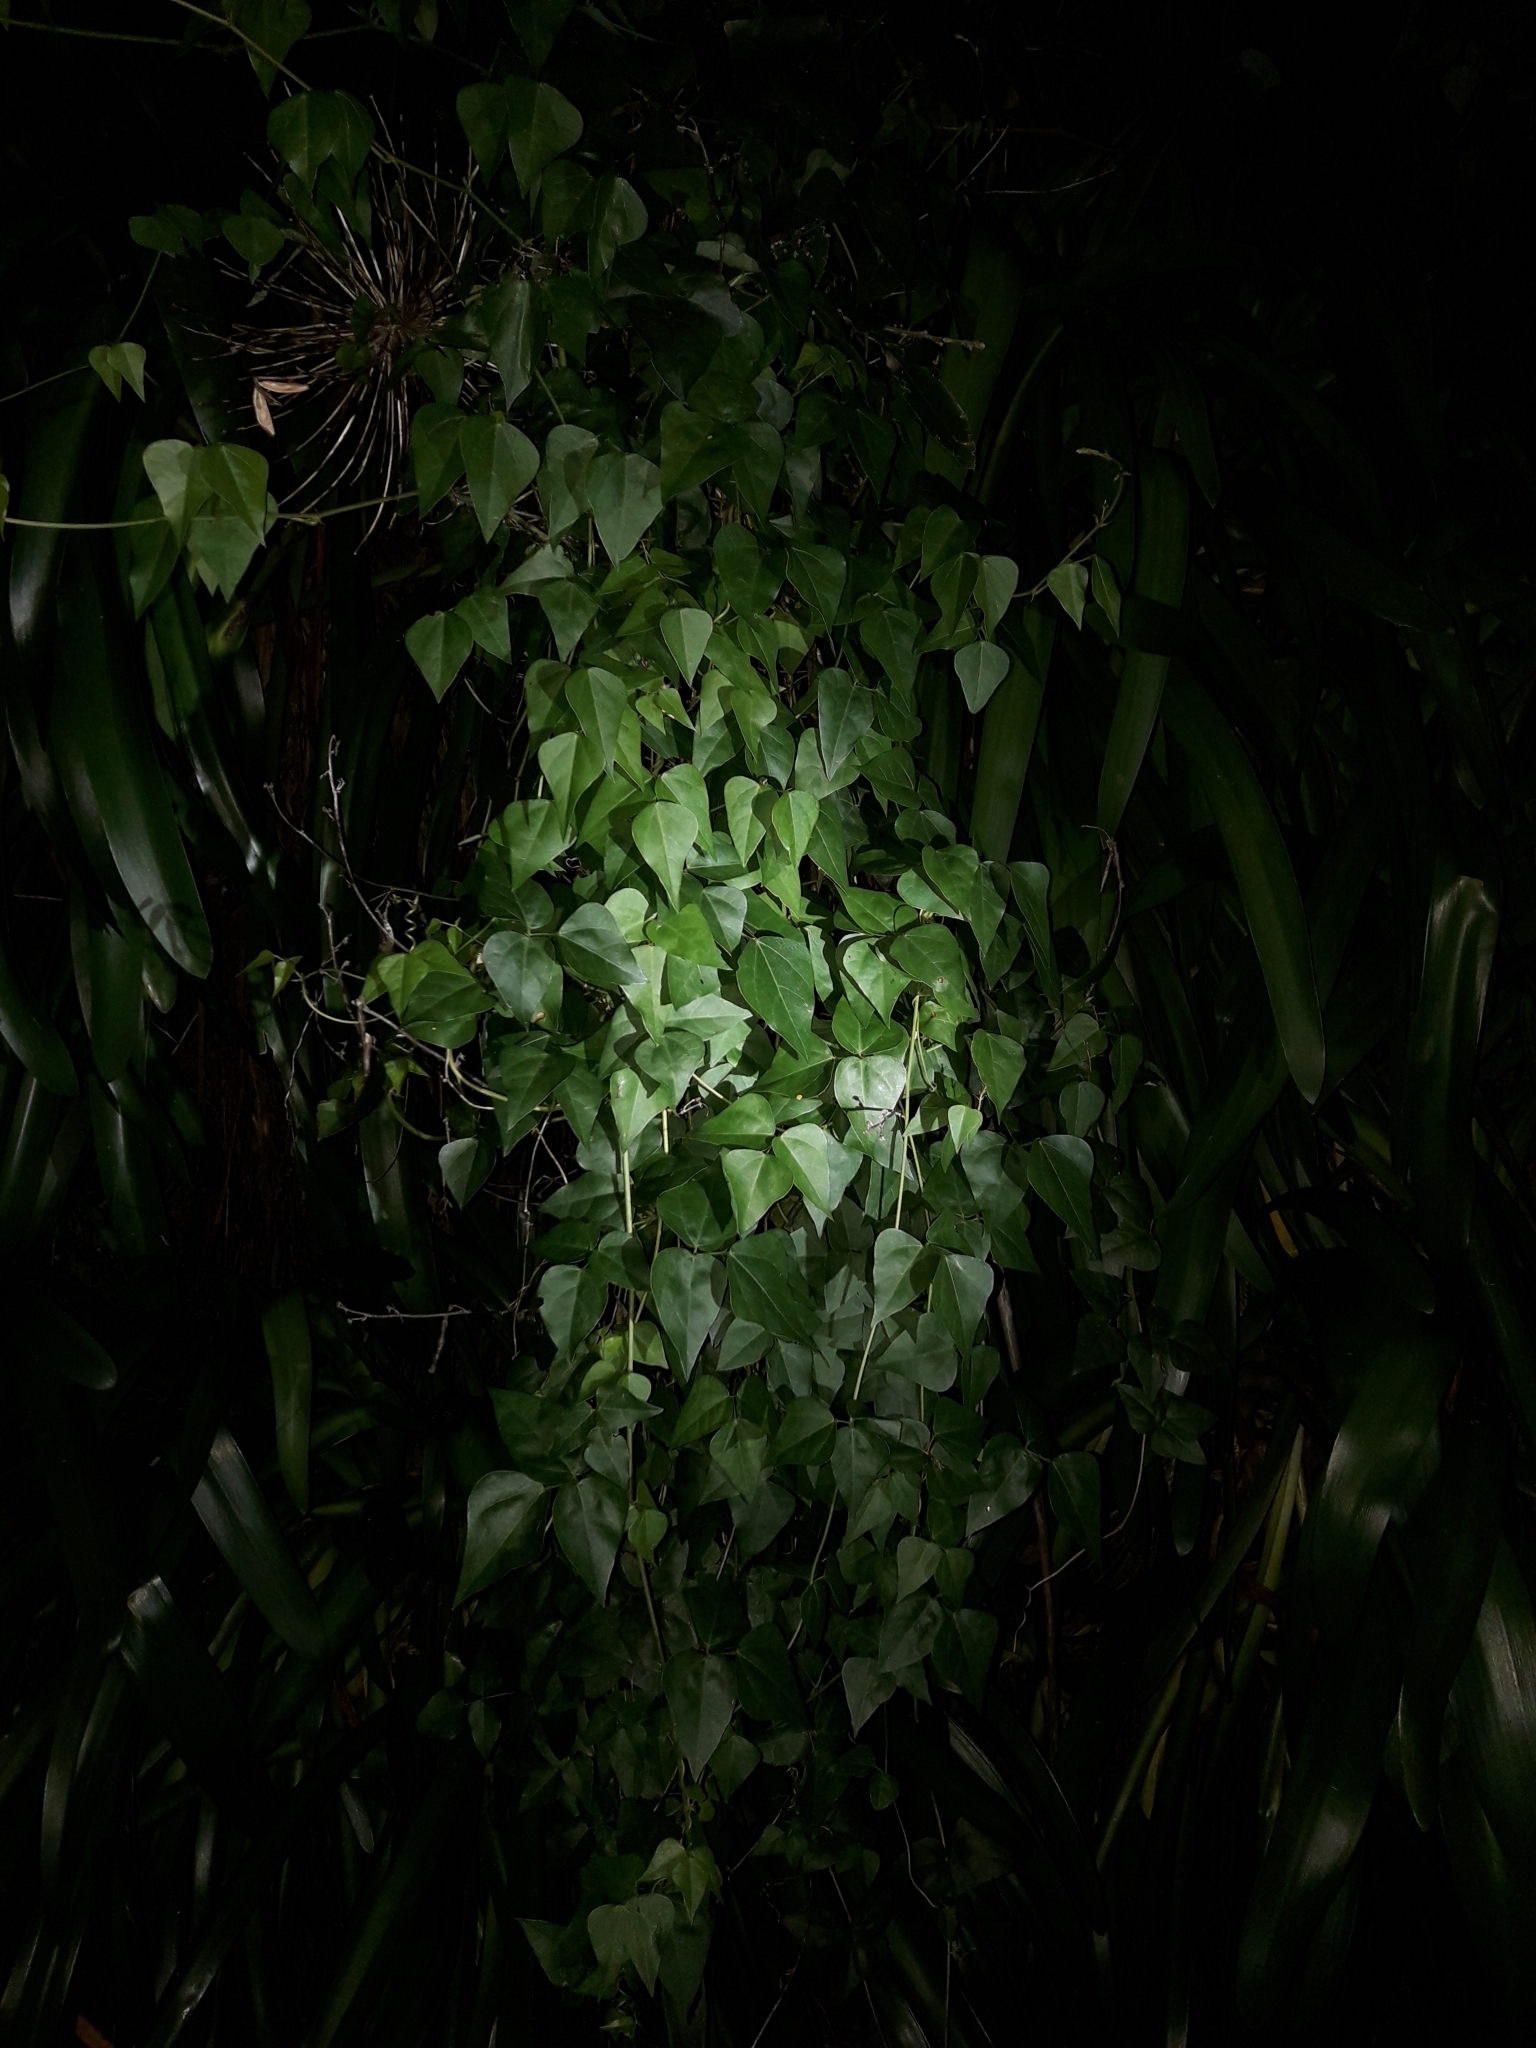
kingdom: Plantae
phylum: Tracheophyta
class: Magnoliopsida
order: Fabales
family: Fabaceae
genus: Dipogon
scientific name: Dipogon lignosus
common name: Okie bean
